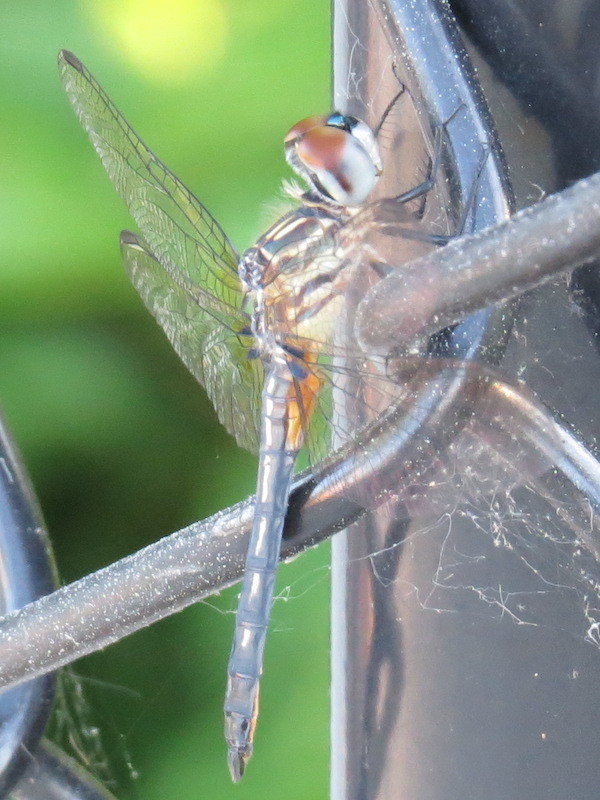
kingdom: Animalia
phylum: Arthropoda
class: Insecta
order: Odonata
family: Libellulidae
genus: Pachydiplax
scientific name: Pachydiplax longipennis
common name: Blue dasher
